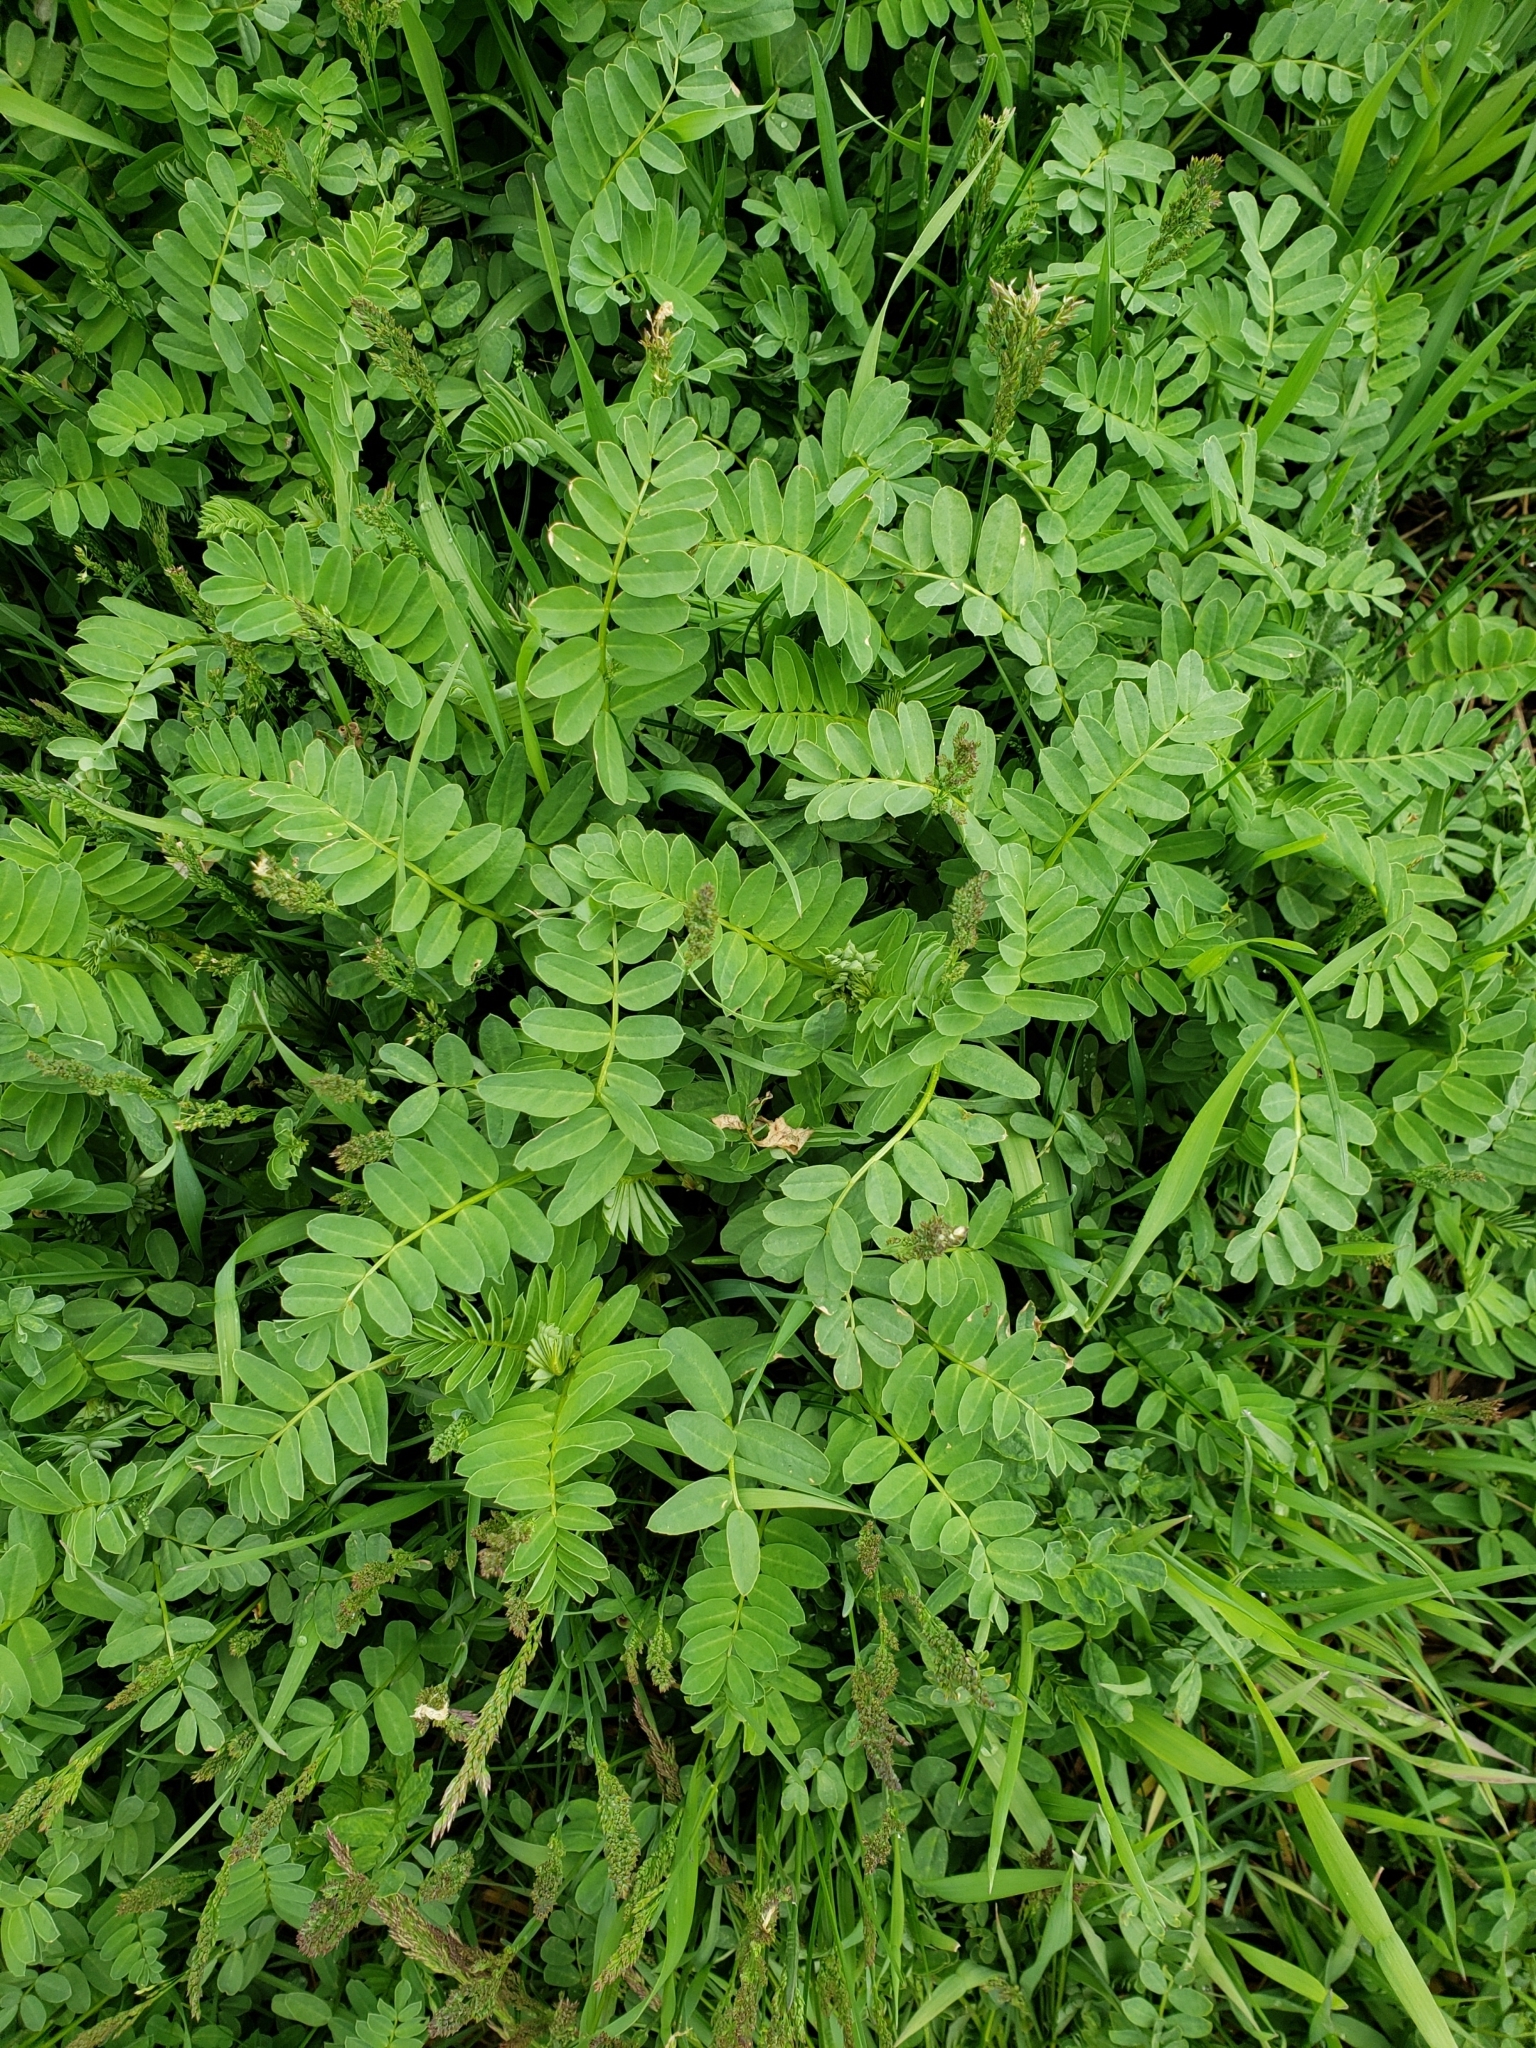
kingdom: Plantae
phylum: Tracheophyta
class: Magnoliopsida
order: Fabales
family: Fabaceae
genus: Coronilla
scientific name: Coronilla varia
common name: Crownvetch
